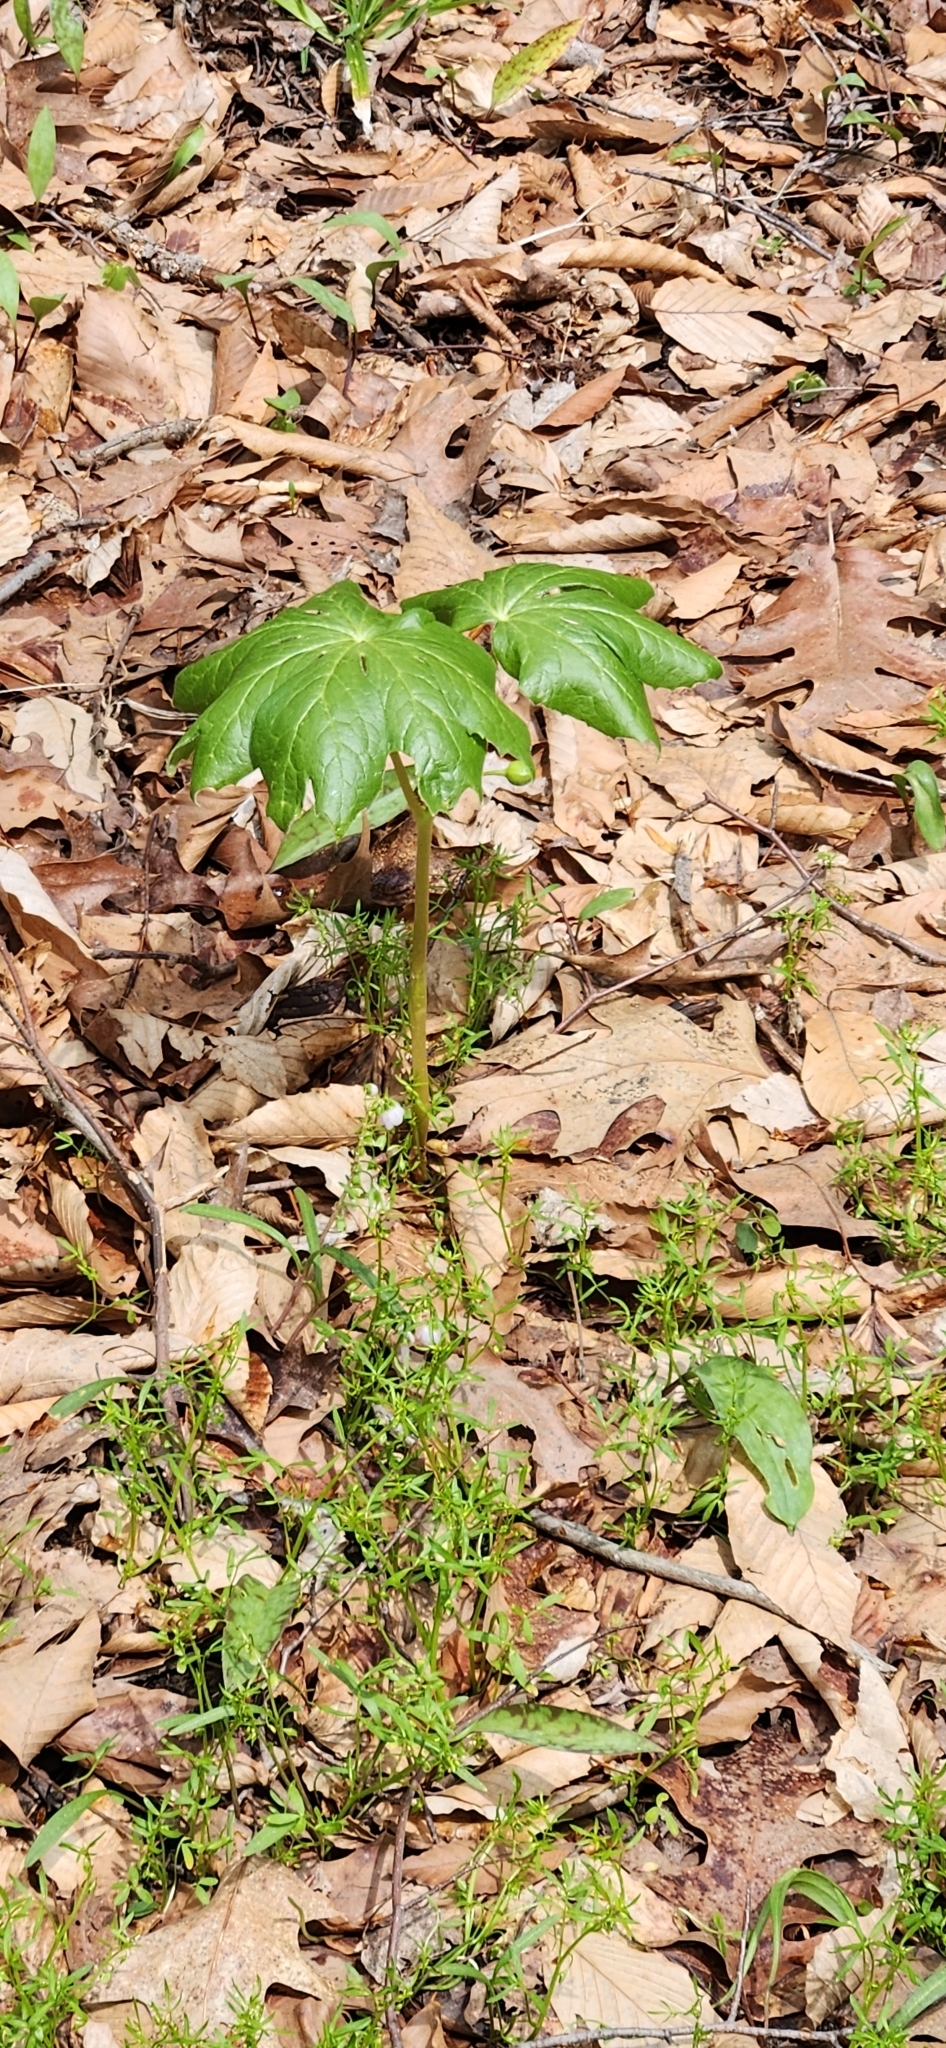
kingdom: Plantae
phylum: Tracheophyta
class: Magnoliopsida
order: Ranunculales
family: Berberidaceae
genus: Podophyllum
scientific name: Podophyllum peltatum
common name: Wild mandrake
